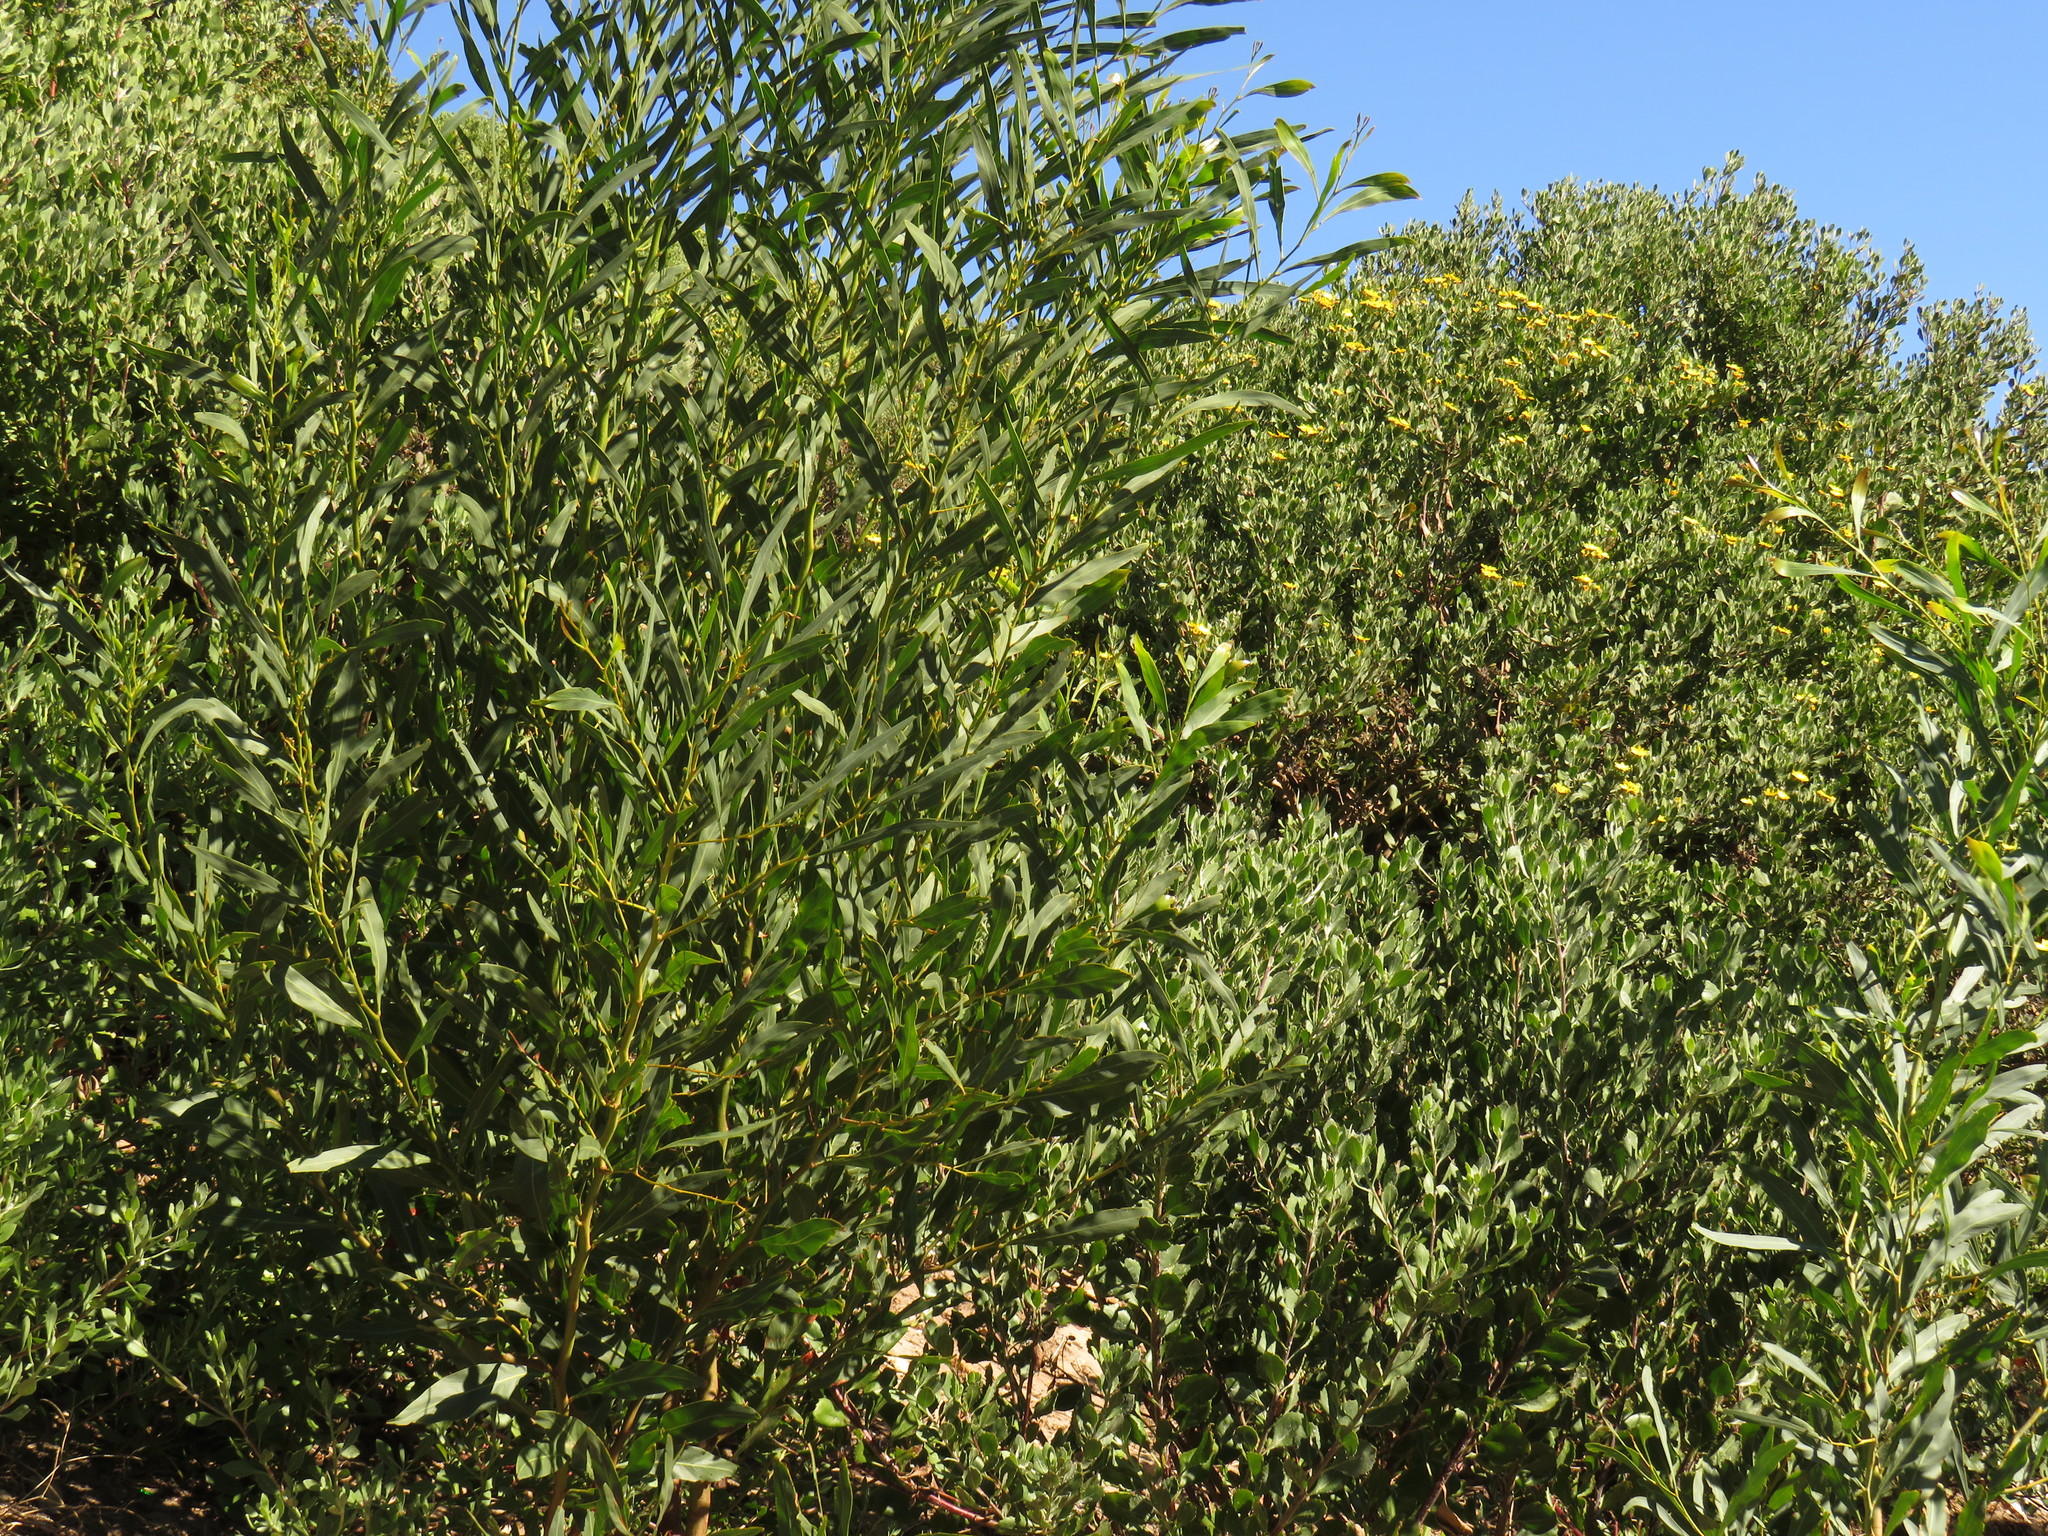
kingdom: Plantae
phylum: Tracheophyta
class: Magnoliopsida
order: Fabales
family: Fabaceae
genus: Acacia
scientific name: Acacia saligna
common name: Orange wattle
